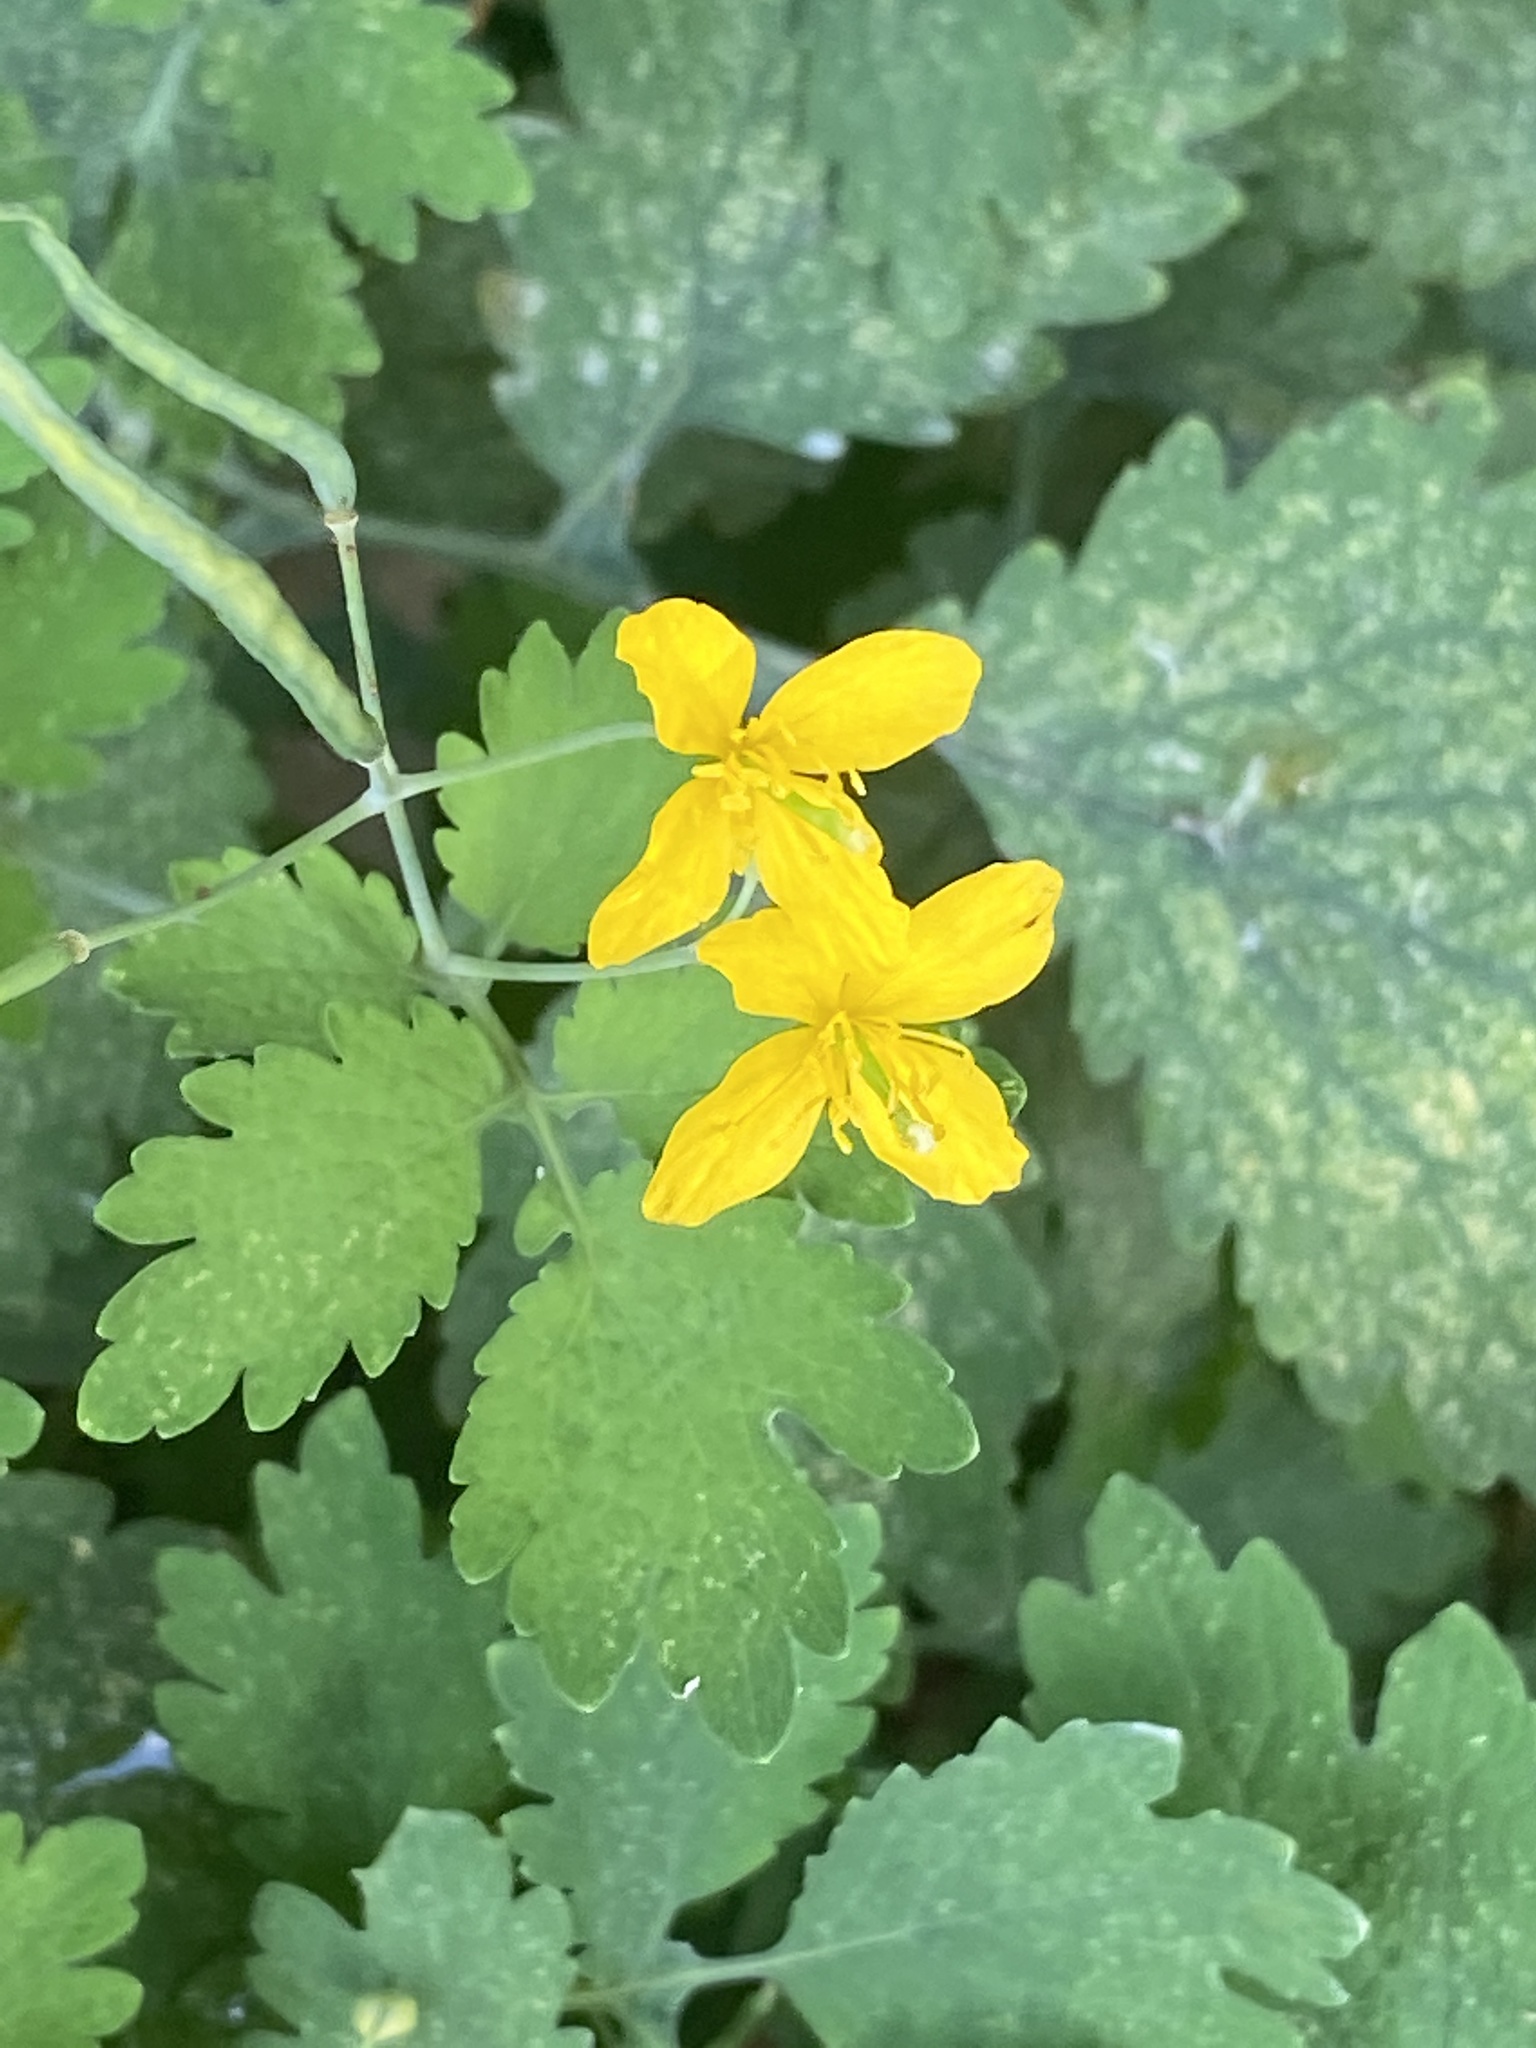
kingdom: Plantae
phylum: Tracheophyta
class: Magnoliopsida
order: Ranunculales
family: Papaveraceae
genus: Chelidonium
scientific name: Chelidonium majus
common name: Greater celandine
